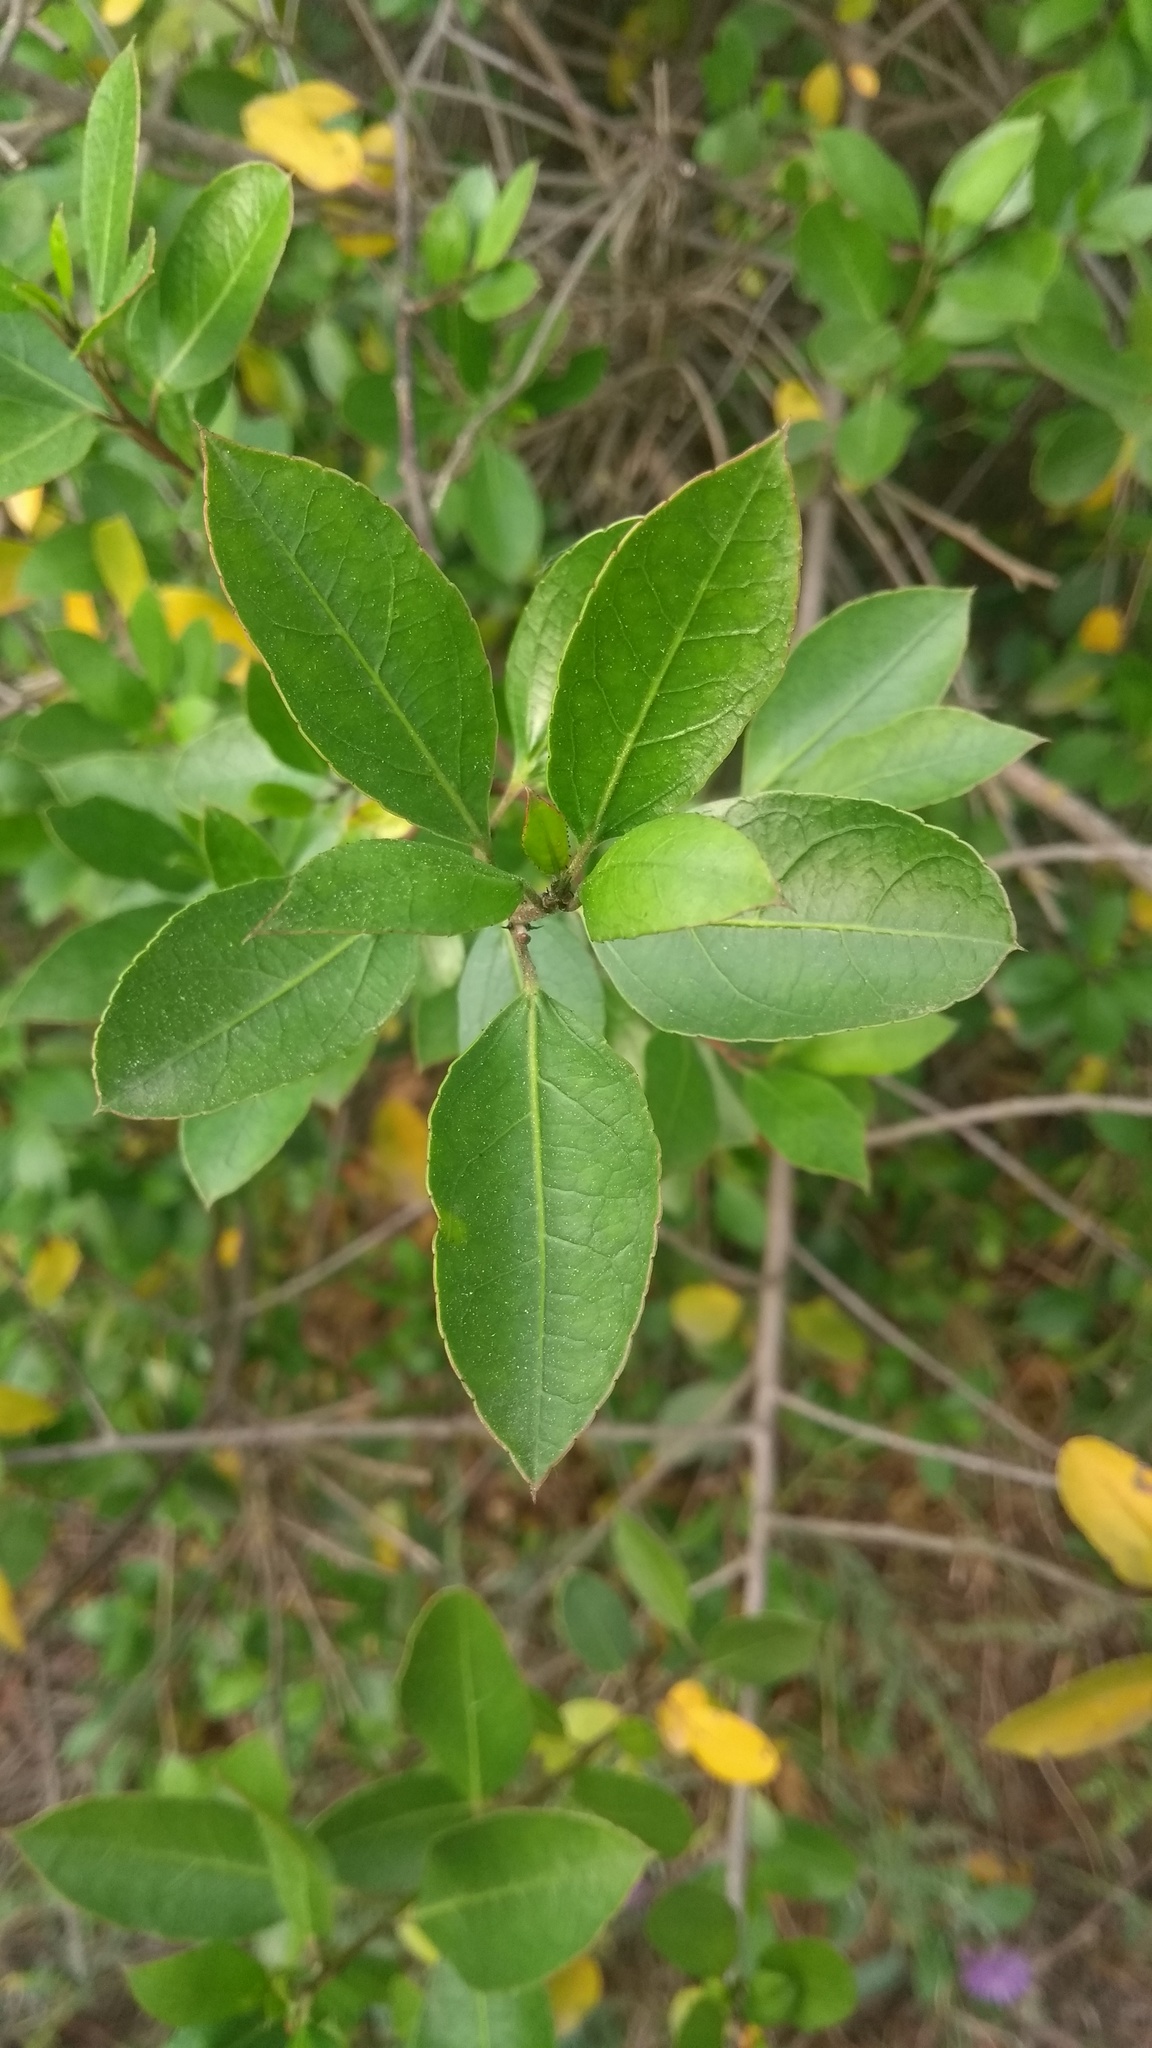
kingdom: Plantae
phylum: Tracheophyta
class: Magnoliopsida
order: Rosales
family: Rhamnaceae
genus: Rhamnus
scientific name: Rhamnus alaternus
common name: Mediterranean buckthorn
